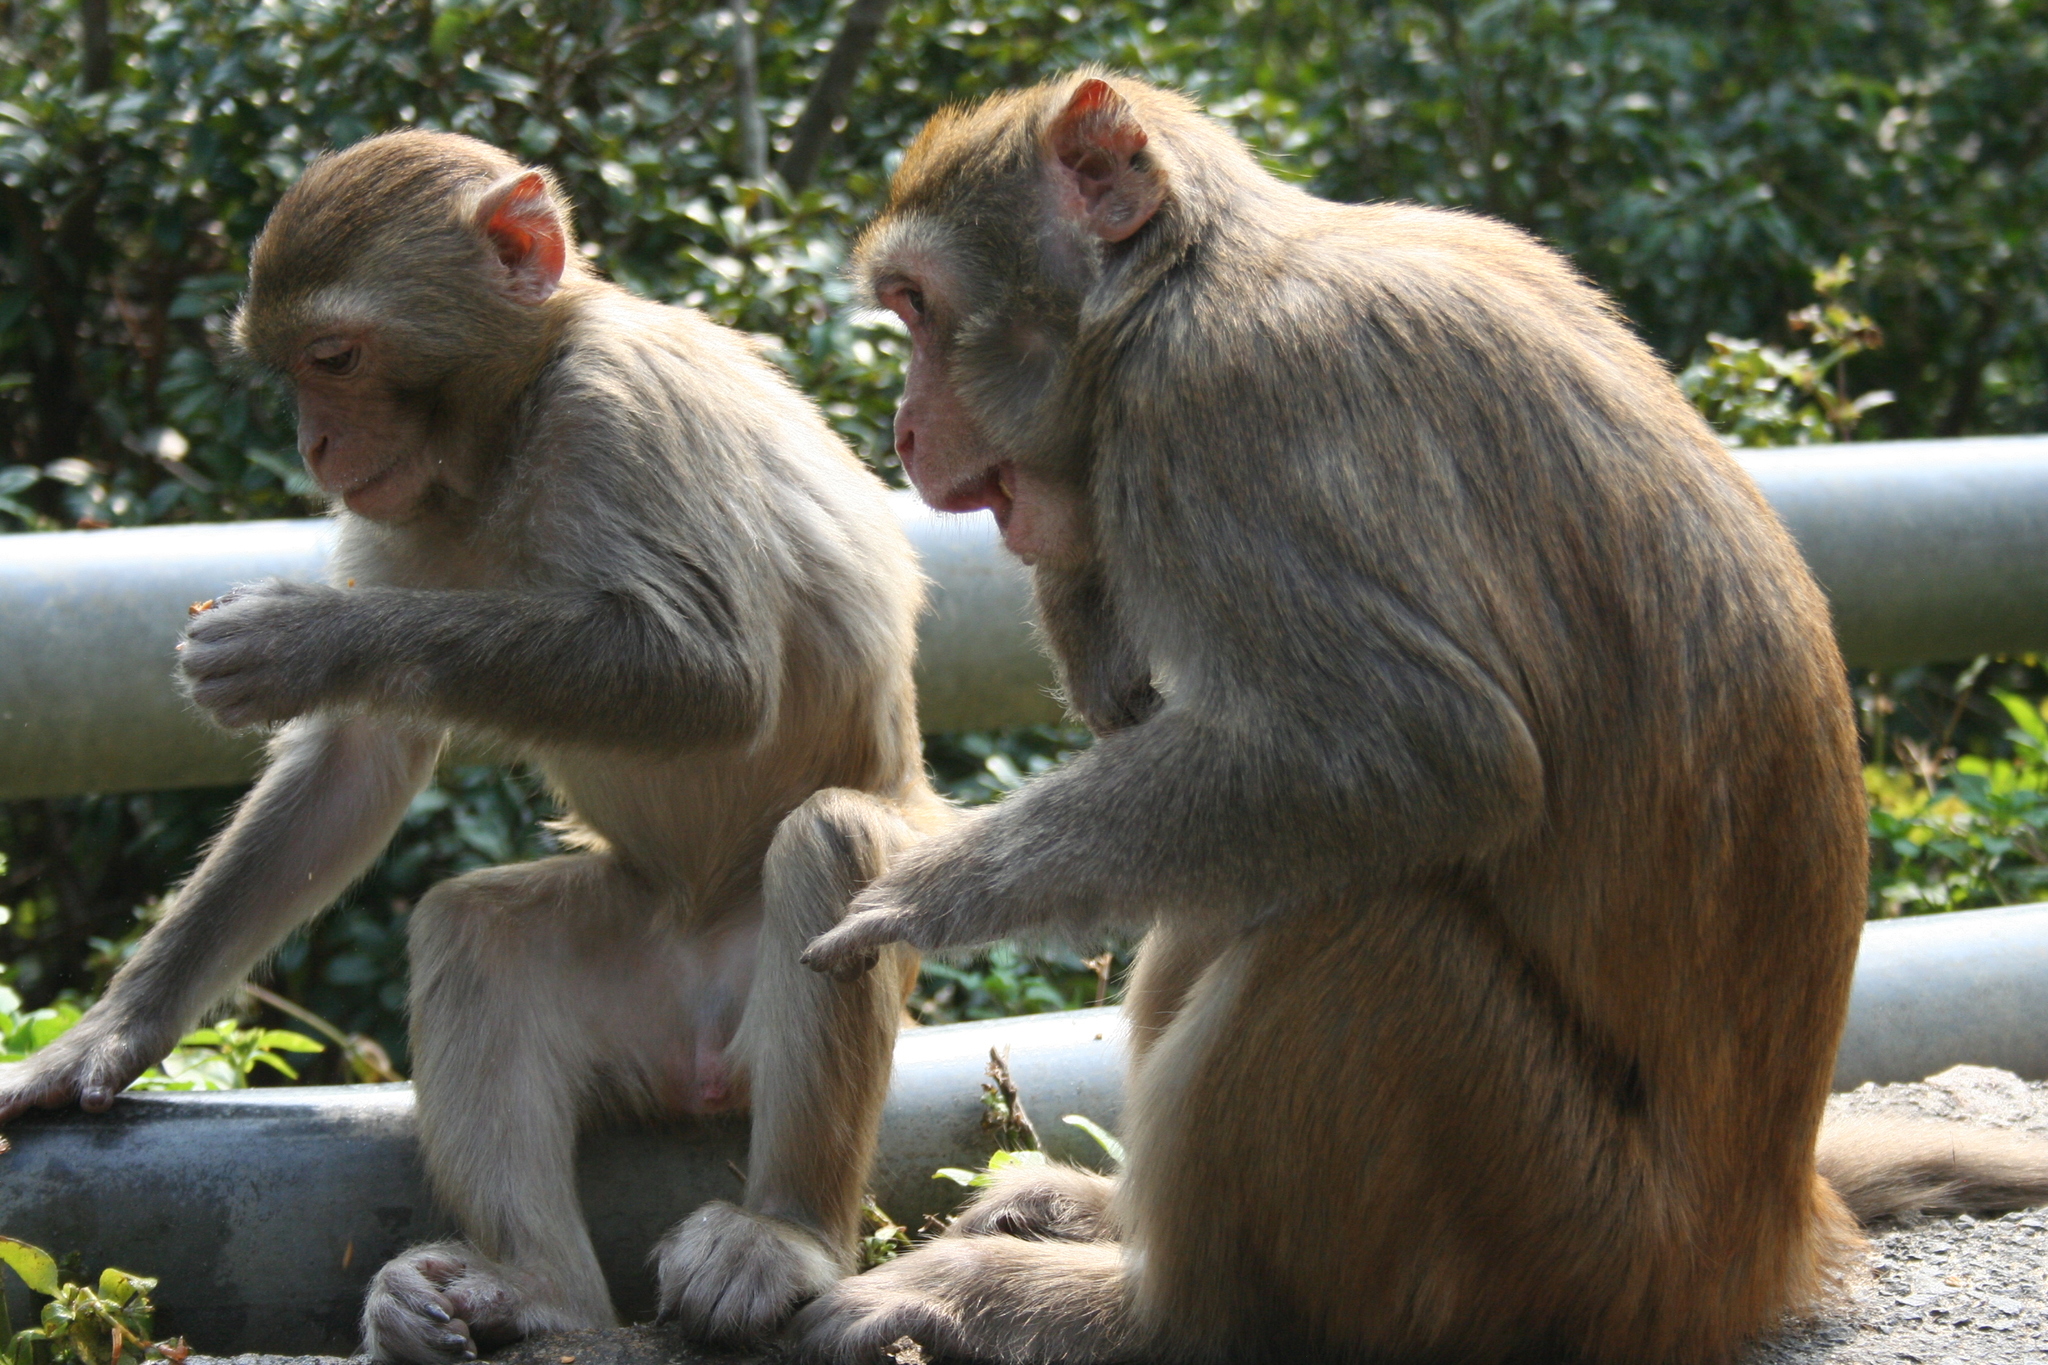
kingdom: Animalia
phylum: Chordata
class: Mammalia
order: Primates
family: Cercopithecidae
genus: Macaca
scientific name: Macaca mulatta
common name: Rhesus monkey
